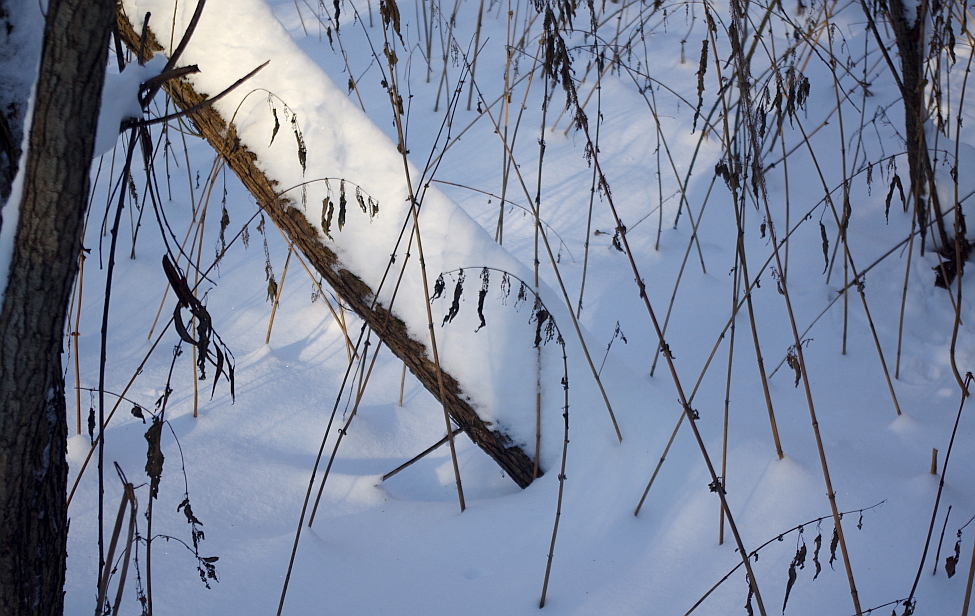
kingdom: Plantae
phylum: Tracheophyta
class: Magnoliopsida
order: Rosales
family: Urticaceae
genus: Urtica
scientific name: Urtica dioica
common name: Common nettle
